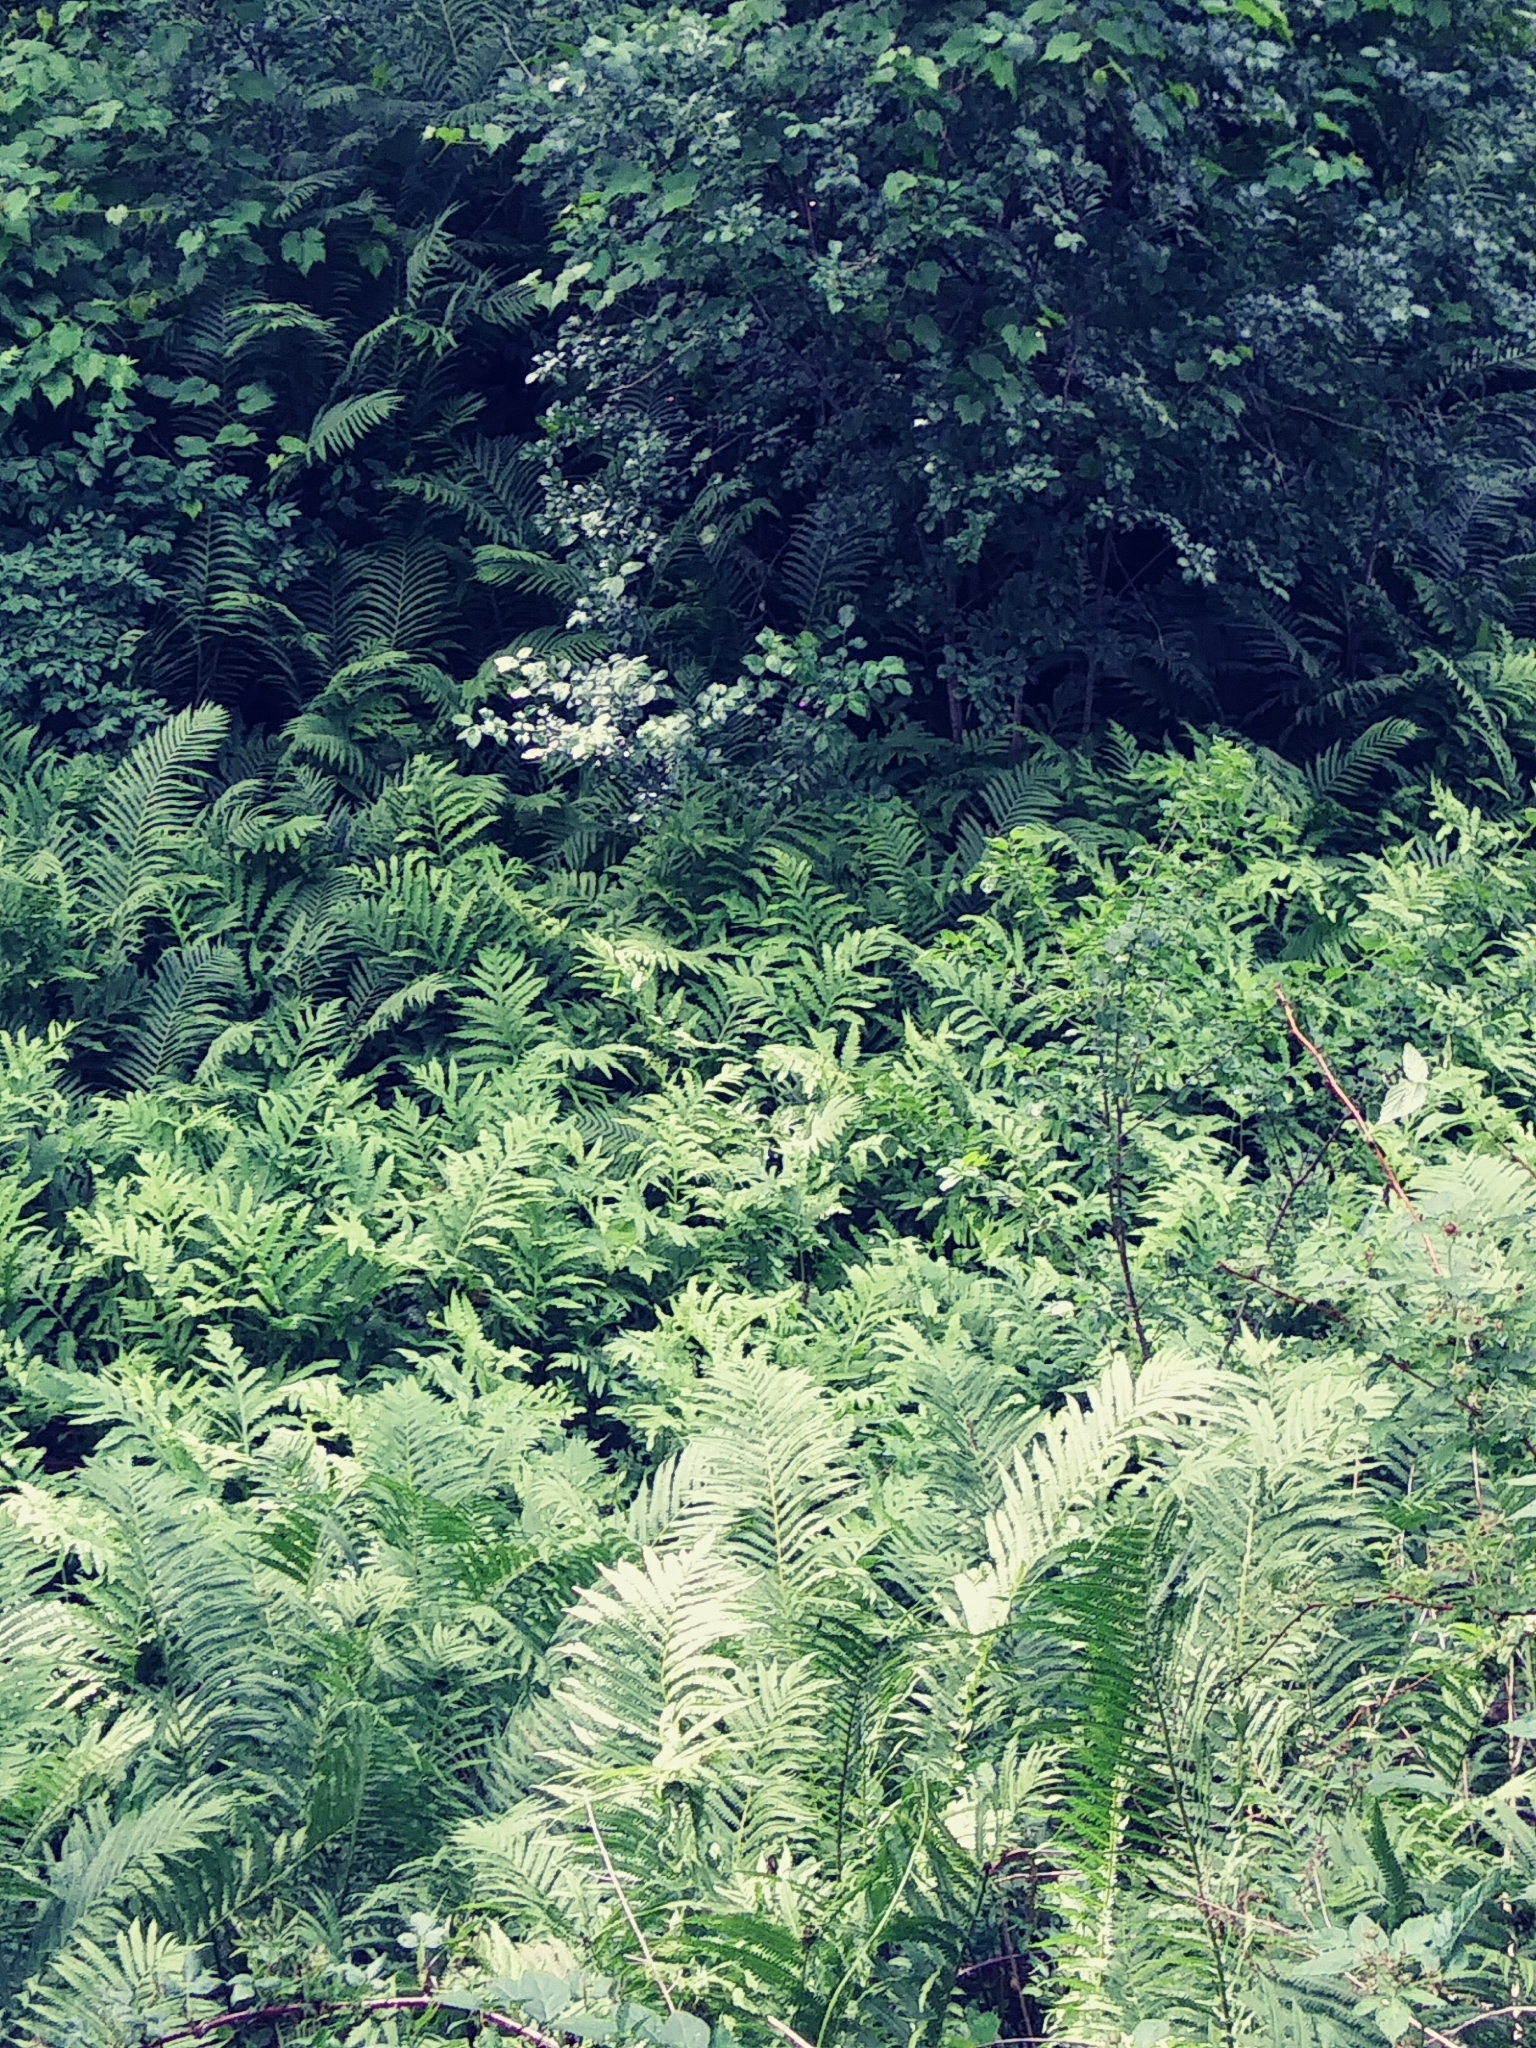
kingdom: Plantae
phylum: Tracheophyta
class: Polypodiopsida
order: Polypodiales
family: Onocleaceae
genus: Onoclea
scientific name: Onoclea sensibilis
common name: Sensitive fern
